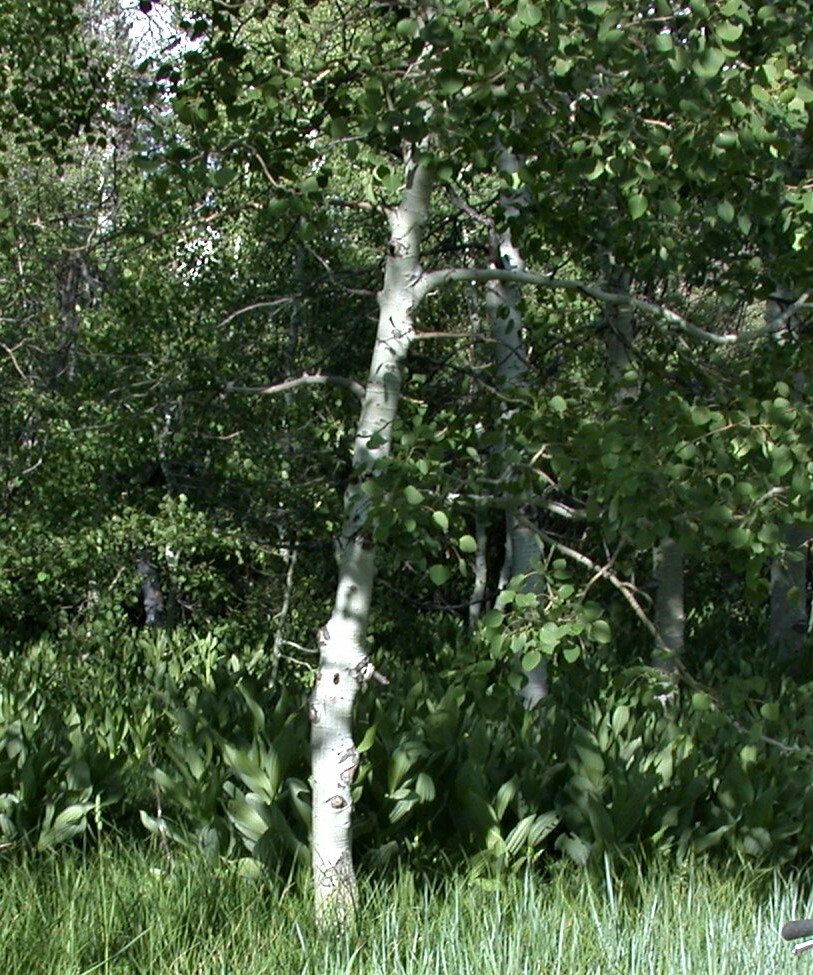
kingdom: Plantae
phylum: Tracheophyta
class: Magnoliopsida
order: Malpighiales
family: Salicaceae
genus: Populus
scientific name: Populus tremuloides
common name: Quaking aspen
